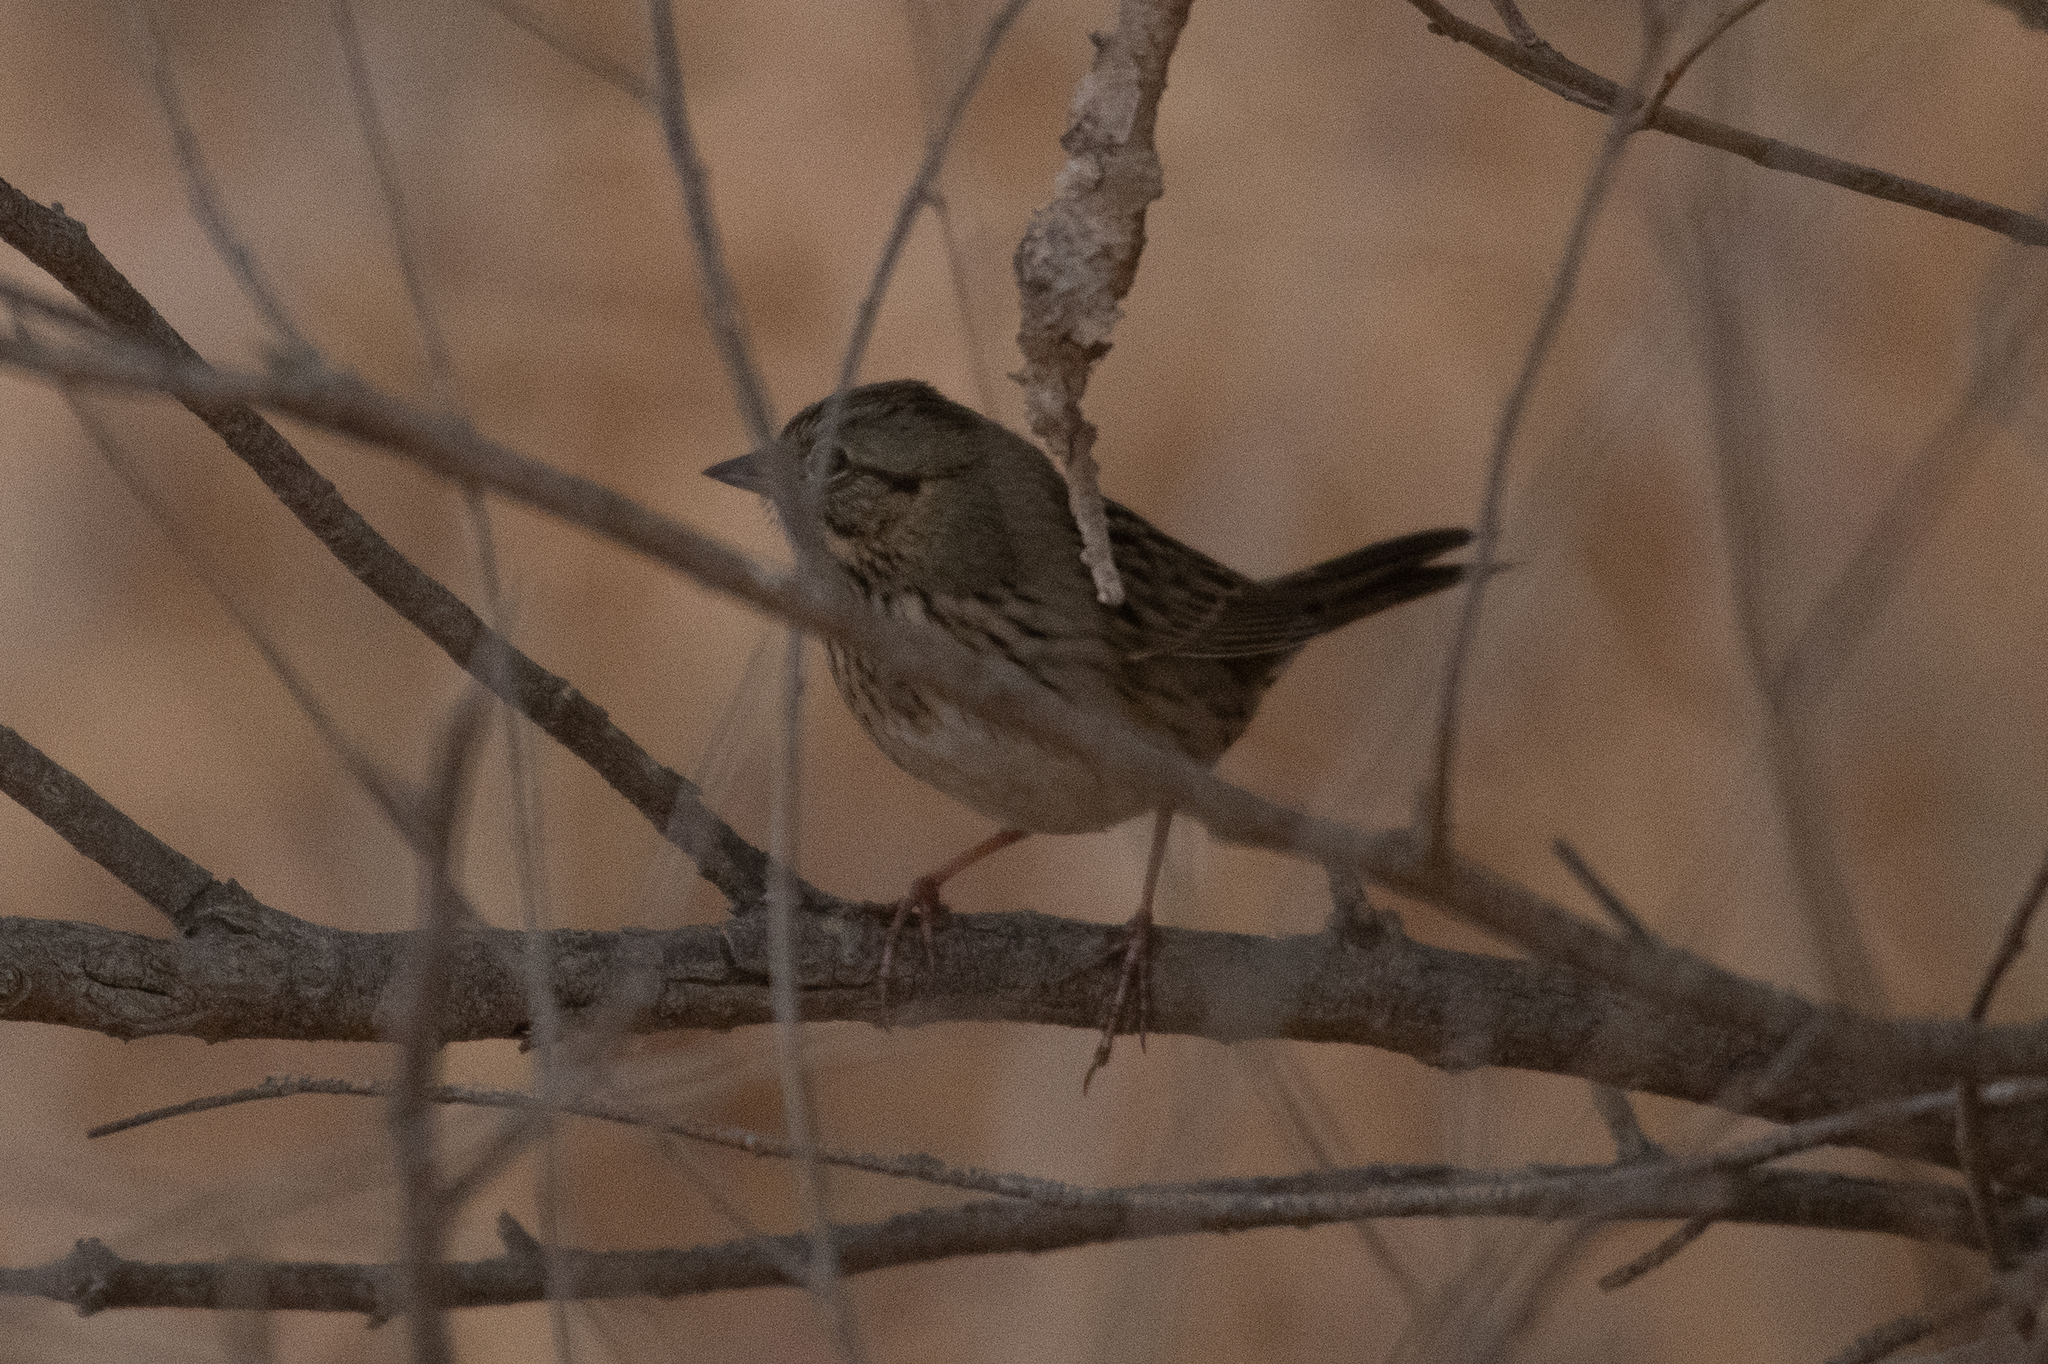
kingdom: Animalia
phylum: Chordata
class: Aves
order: Passeriformes
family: Passerellidae
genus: Melospiza
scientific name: Melospiza lincolnii
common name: Lincoln's sparrow
